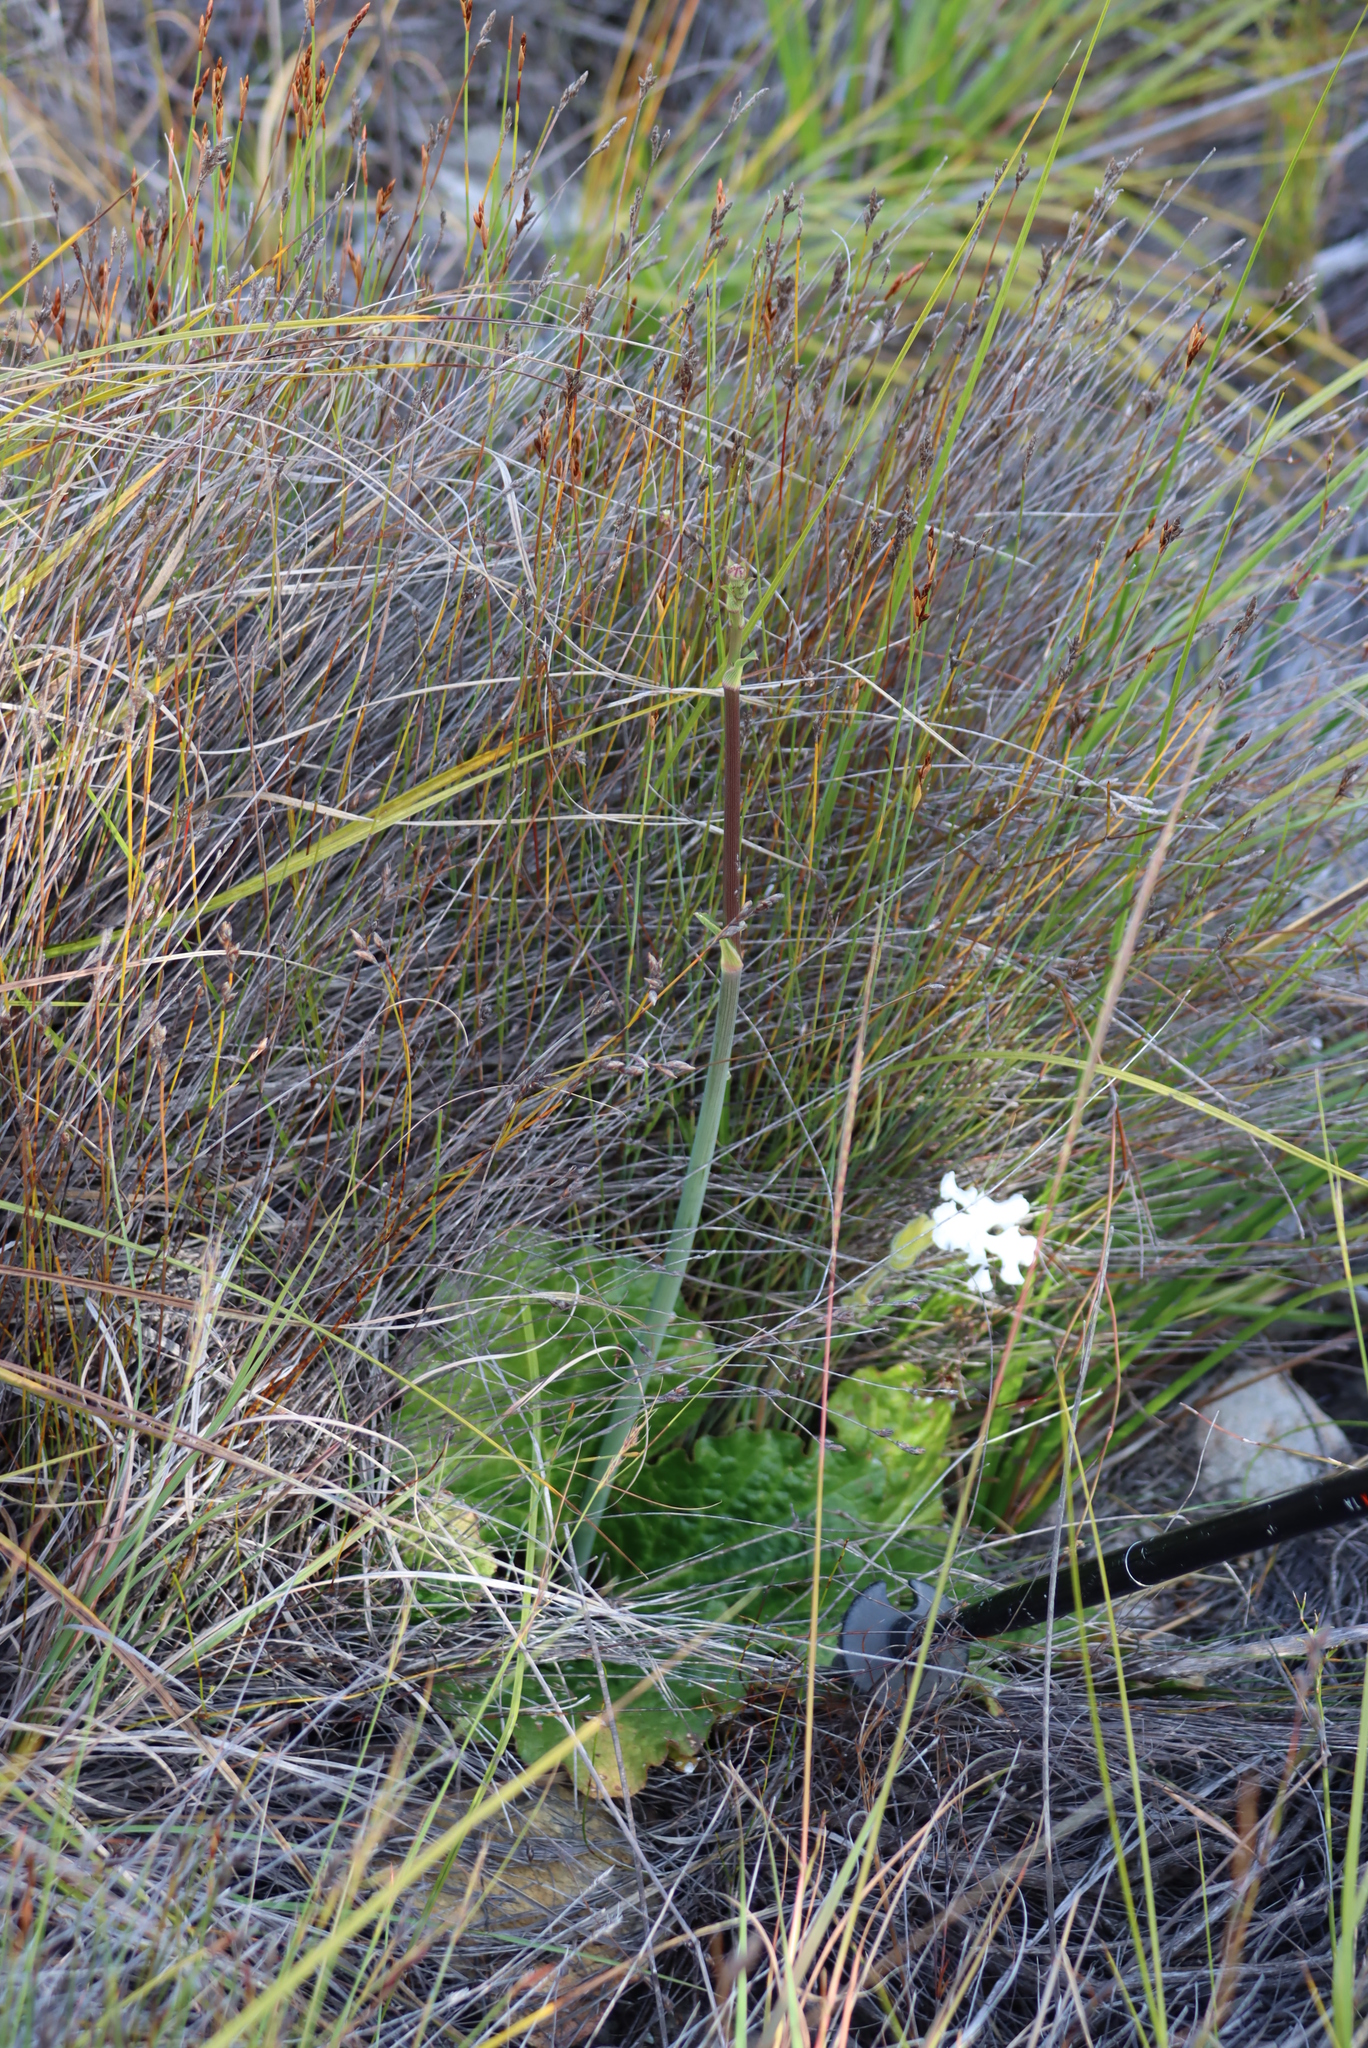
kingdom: Plantae
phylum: Tracheophyta
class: Magnoliopsida
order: Apiales
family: Apiaceae
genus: Lichtensteinia
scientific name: Lichtensteinia latifolia
